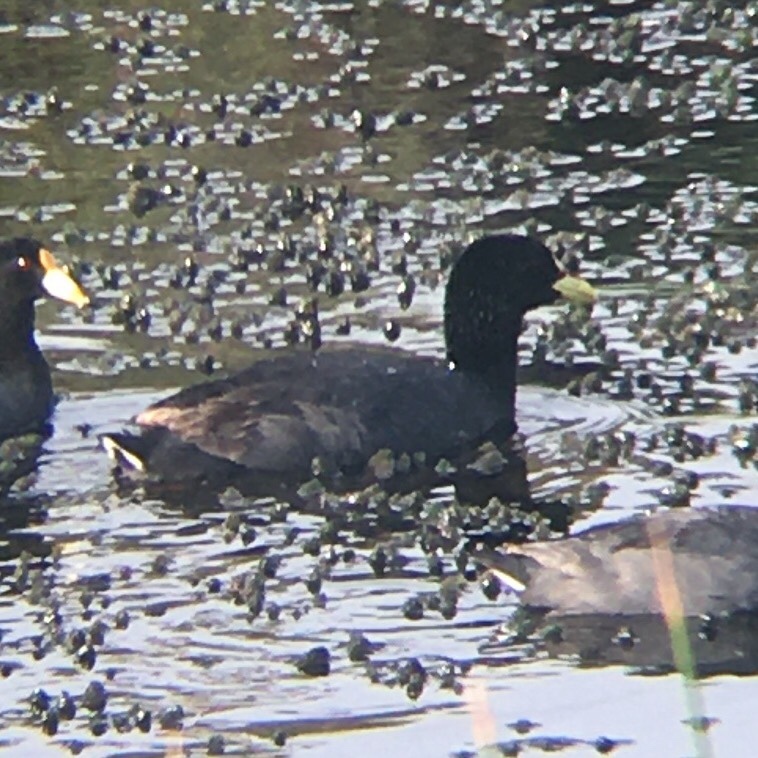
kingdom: Animalia
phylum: Chordata
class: Aves
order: Gruiformes
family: Rallidae
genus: Fulica
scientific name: Fulica armillata
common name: Red-gartered coot
